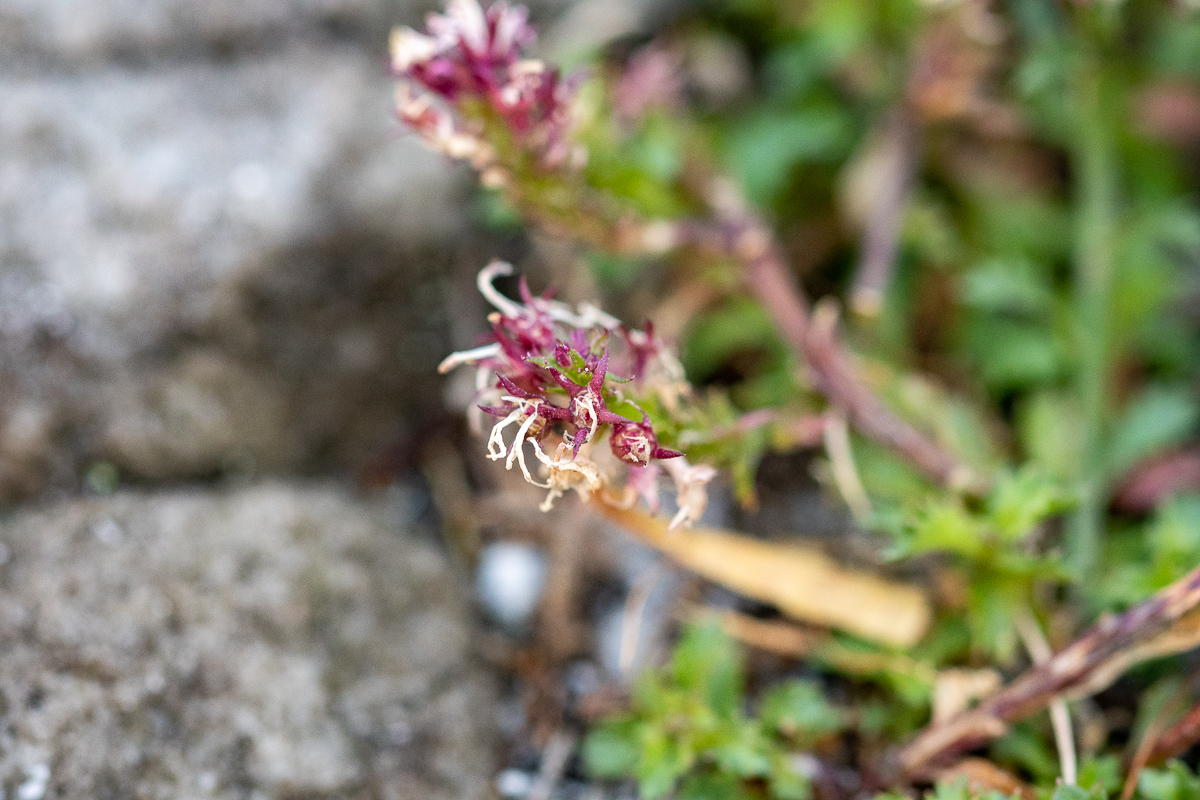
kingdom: Plantae
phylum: Tracheophyta
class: Magnoliopsida
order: Asterales
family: Campanulaceae
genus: Lobelia
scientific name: Lobelia jasionoides
